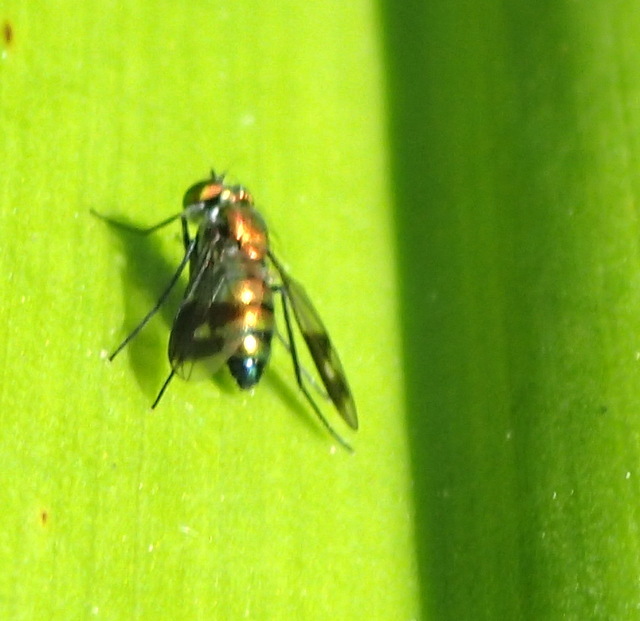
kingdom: Animalia
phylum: Arthropoda
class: Insecta
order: Diptera
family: Dolichopodidae
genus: Condylostylus
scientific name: Condylostylus patibulatus
